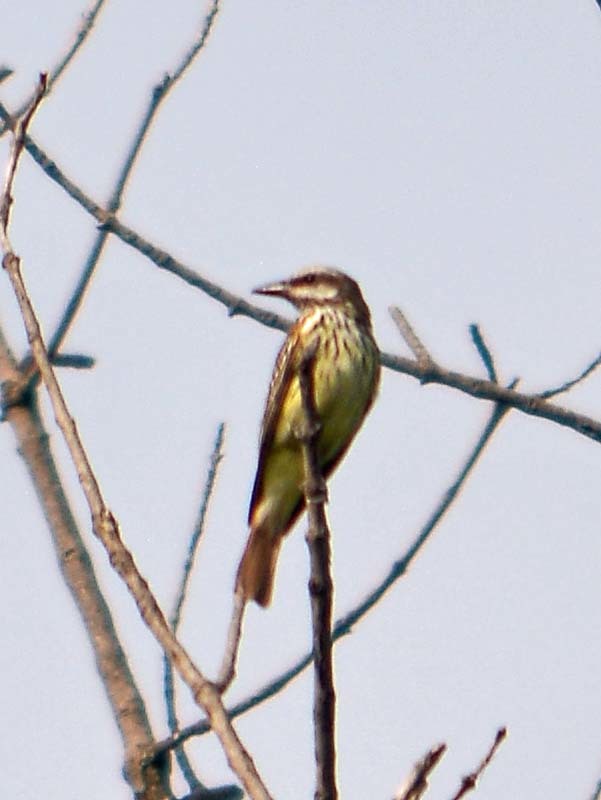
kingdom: Animalia
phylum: Chordata
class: Aves
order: Passeriformes
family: Tyrannidae
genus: Myiodynastes
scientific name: Myiodynastes luteiventris
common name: Sulphur-bellied flycatcher
